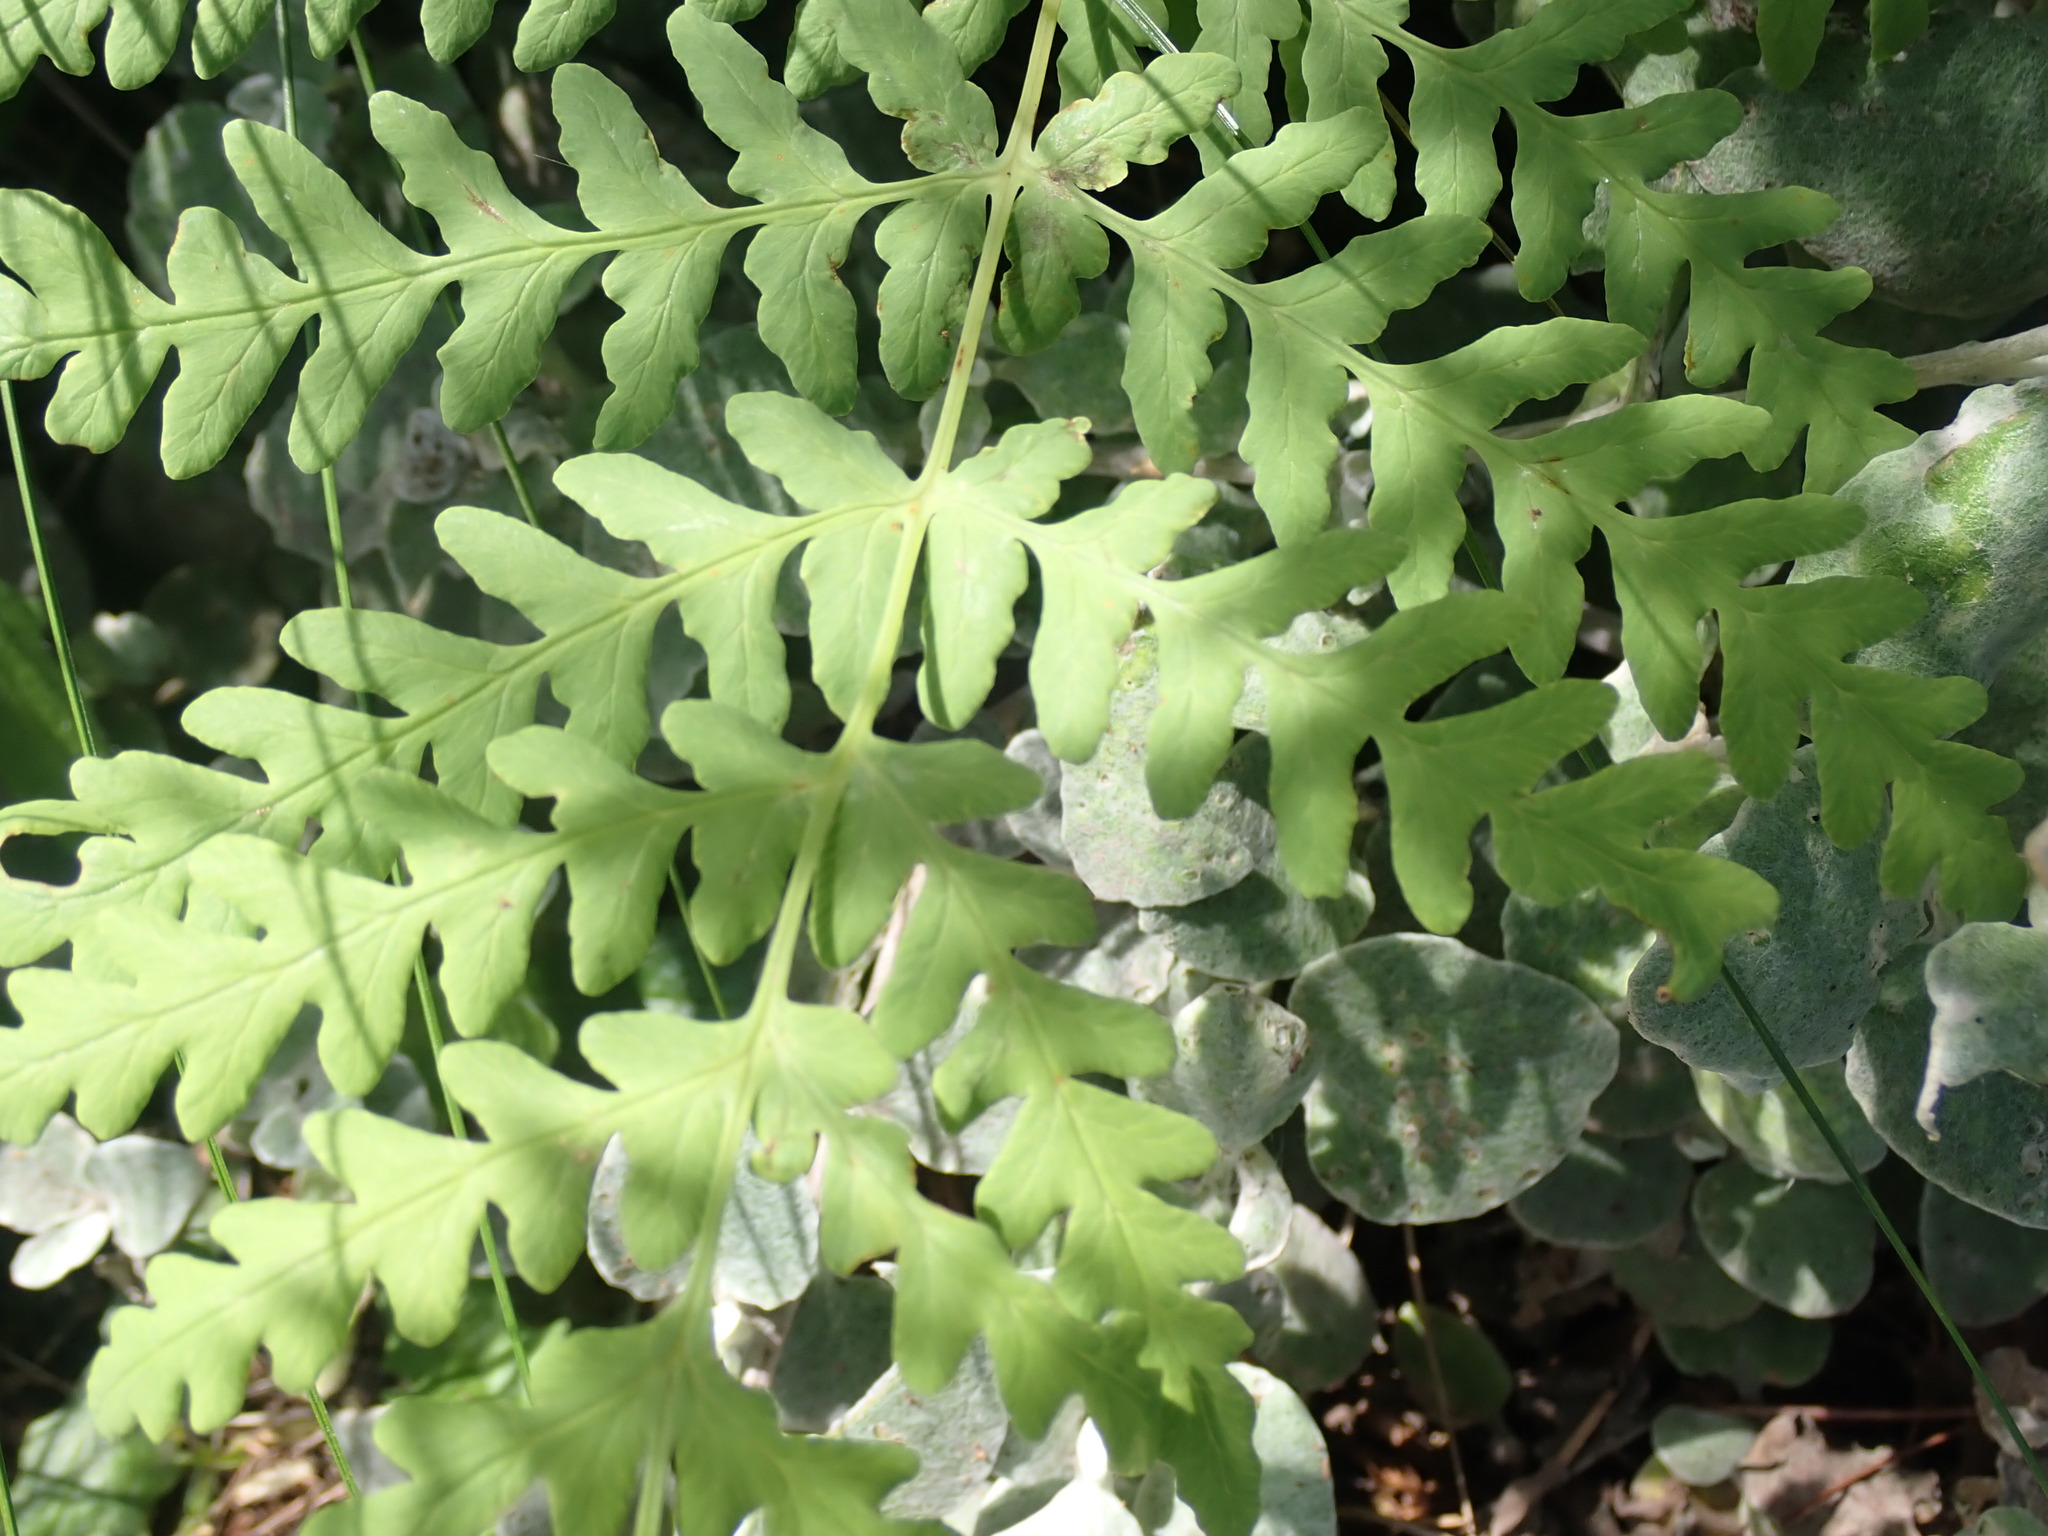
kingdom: Plantae
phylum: Tracheophyta
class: Polypodiopsida
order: Polypodiales
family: Dennstaedtiaceae
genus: Histiopteris
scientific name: Histiopteris incisa
